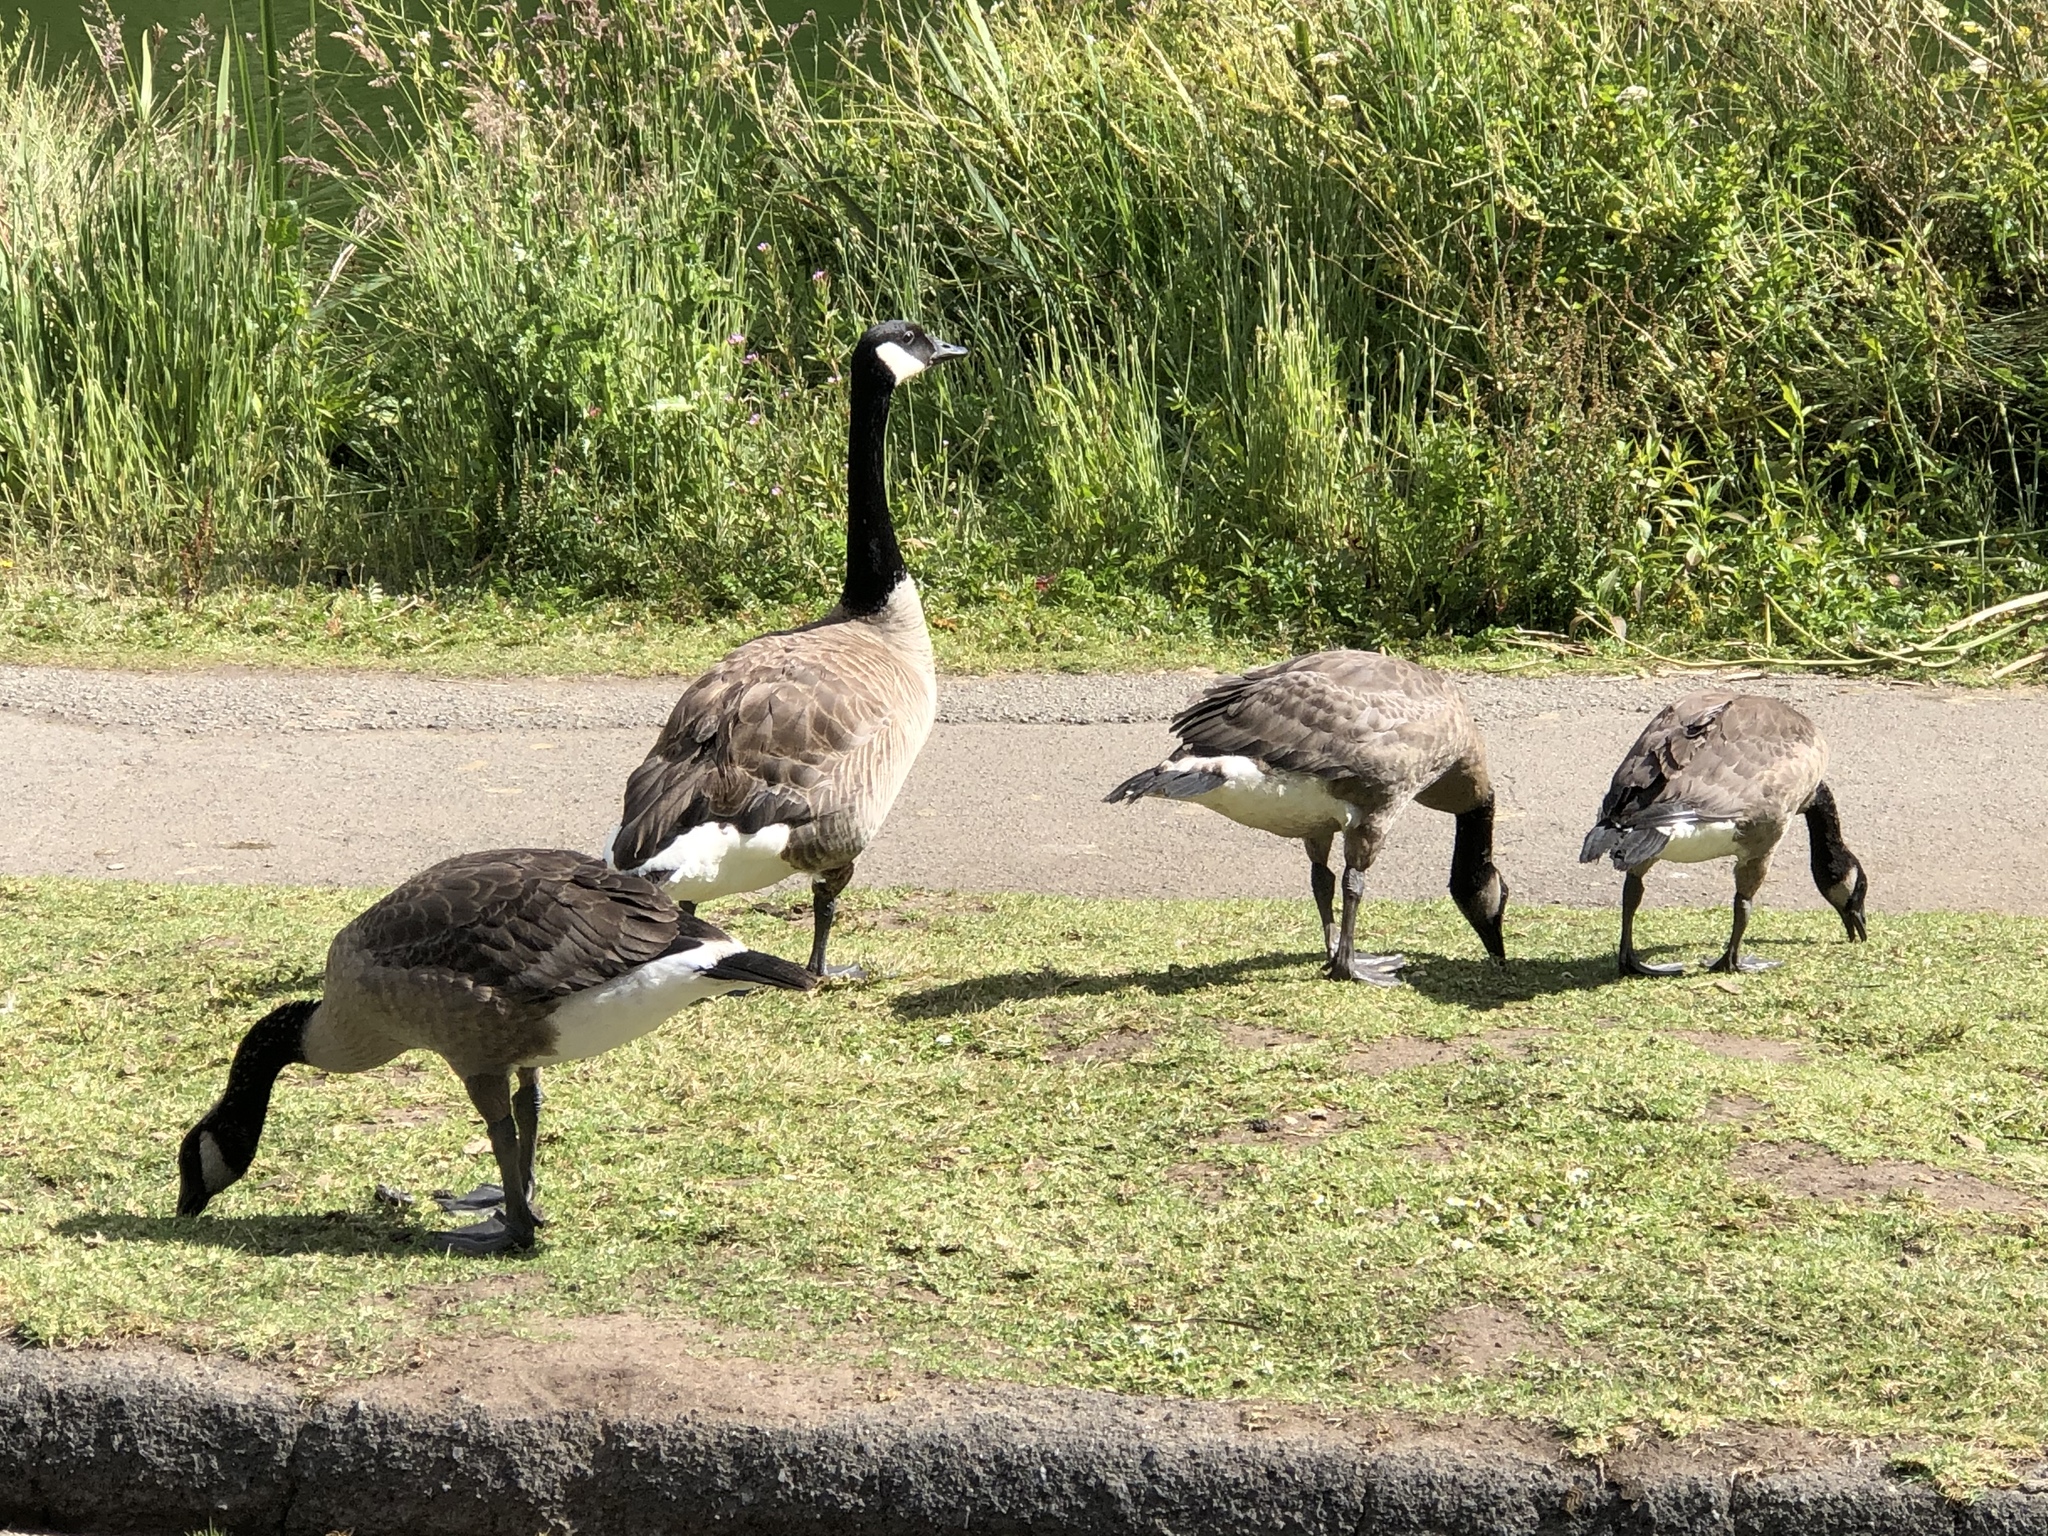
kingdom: Animalia
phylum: Chordata
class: Aves
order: Anseriformes
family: Anatidae
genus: Branta
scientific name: Branta canadensis
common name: Canada goose
